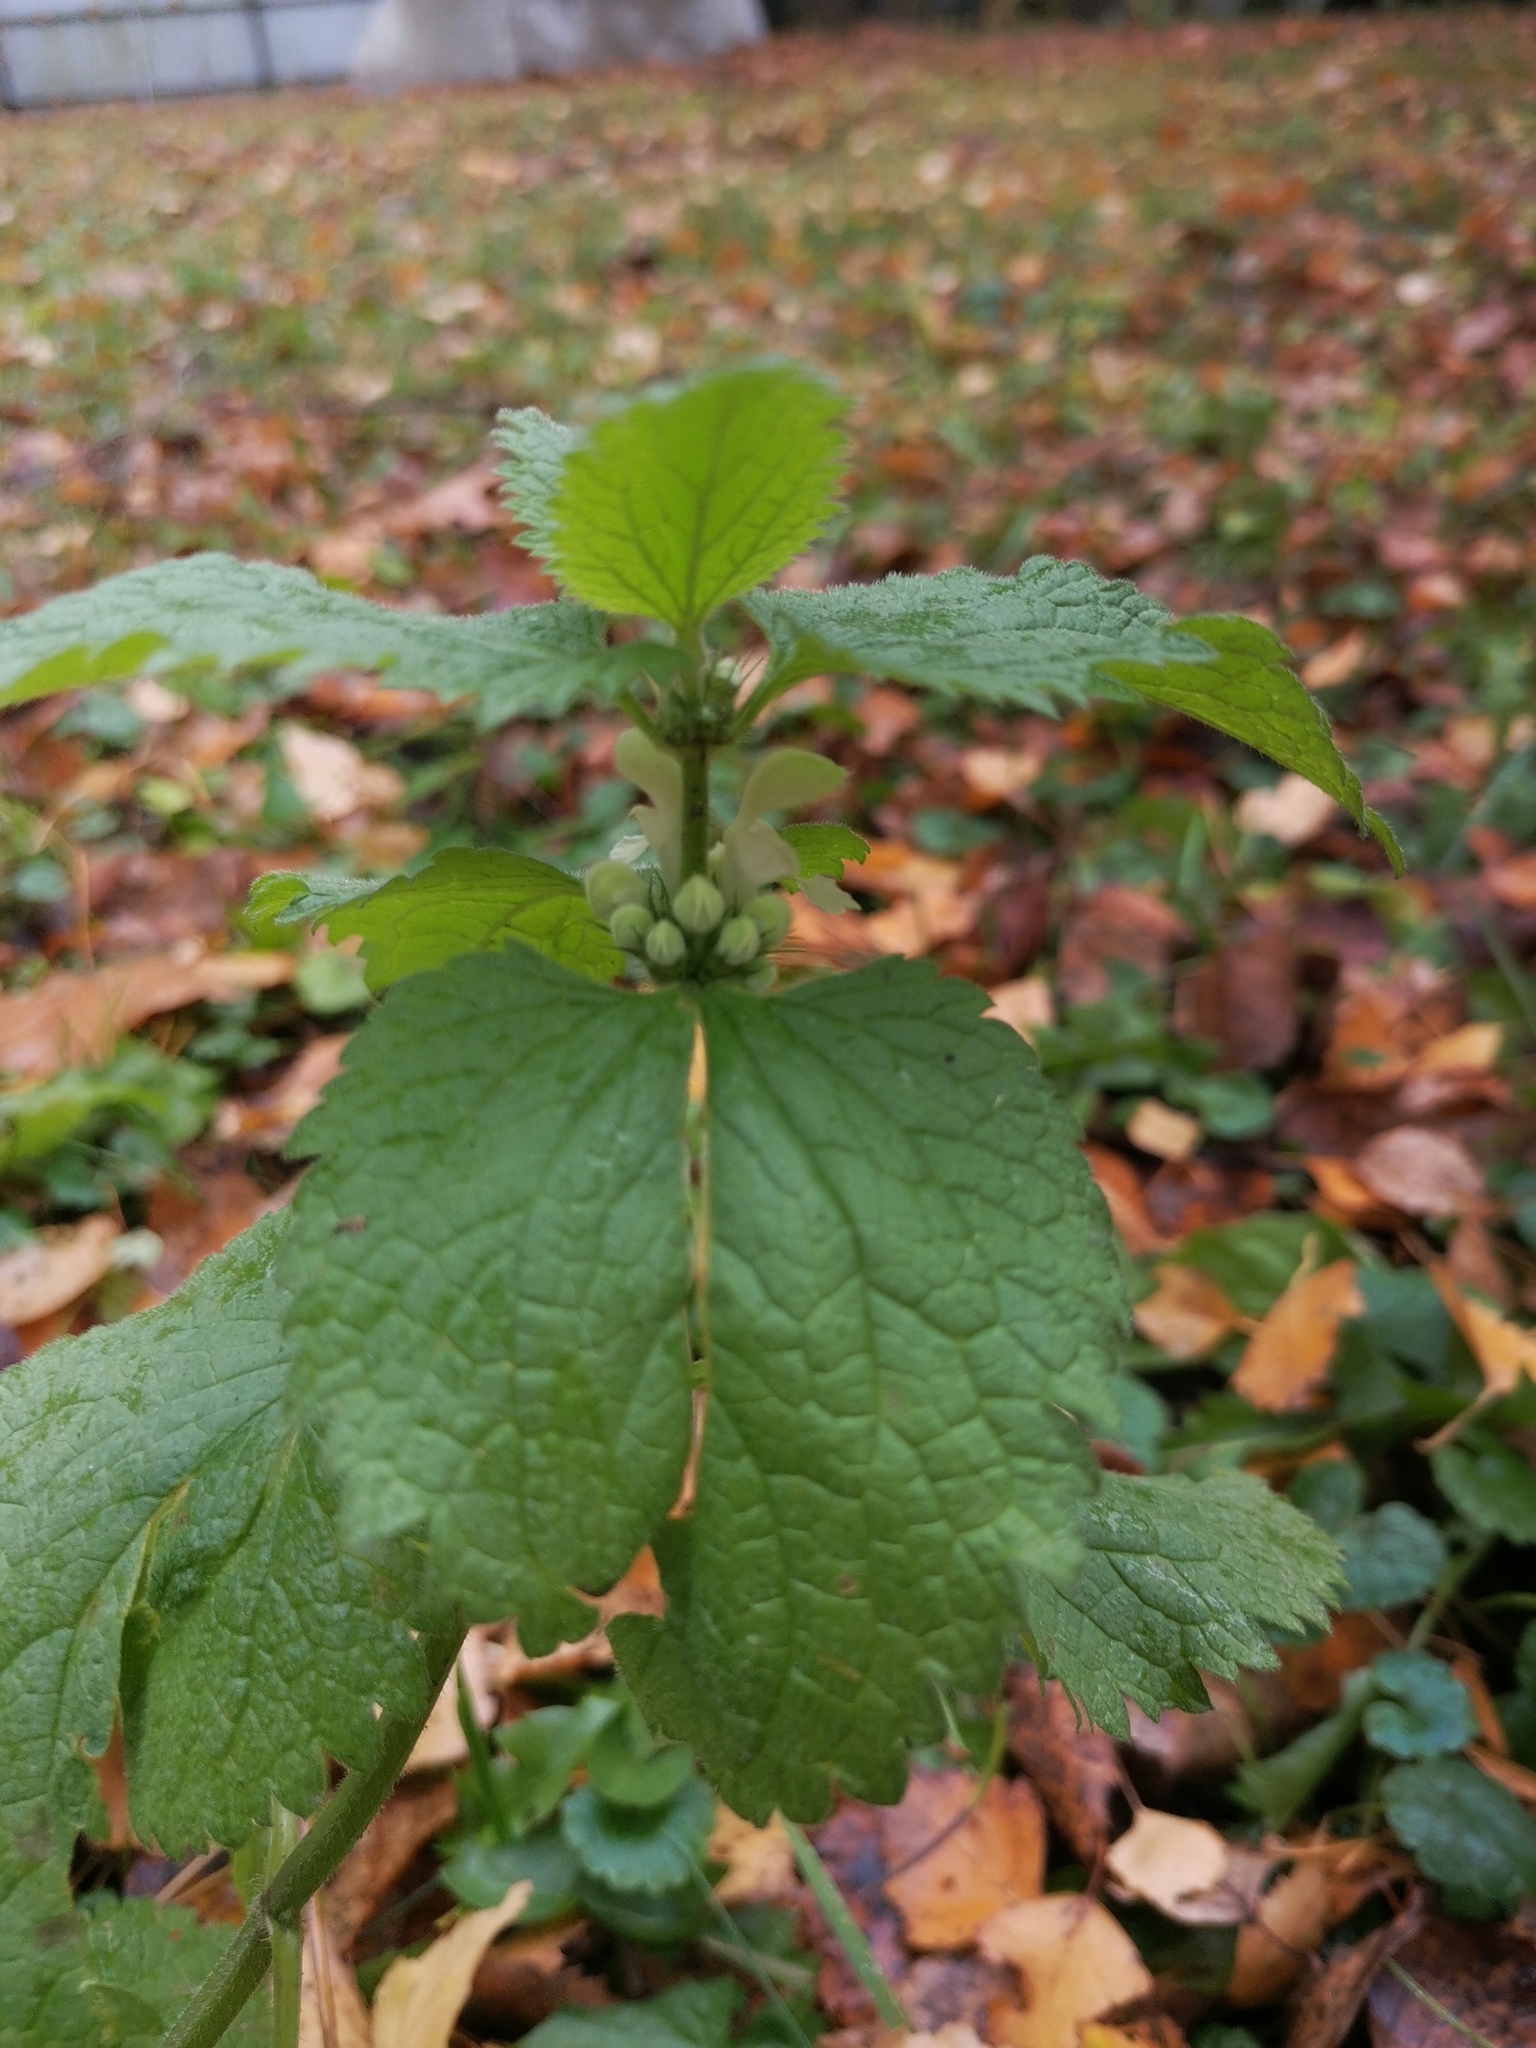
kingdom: Plantae
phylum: Tracheophyta
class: Magnoliopsida
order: Lamiales
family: Lamiaceae
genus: Lamium
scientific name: Lamium album
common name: White dead-nettle
